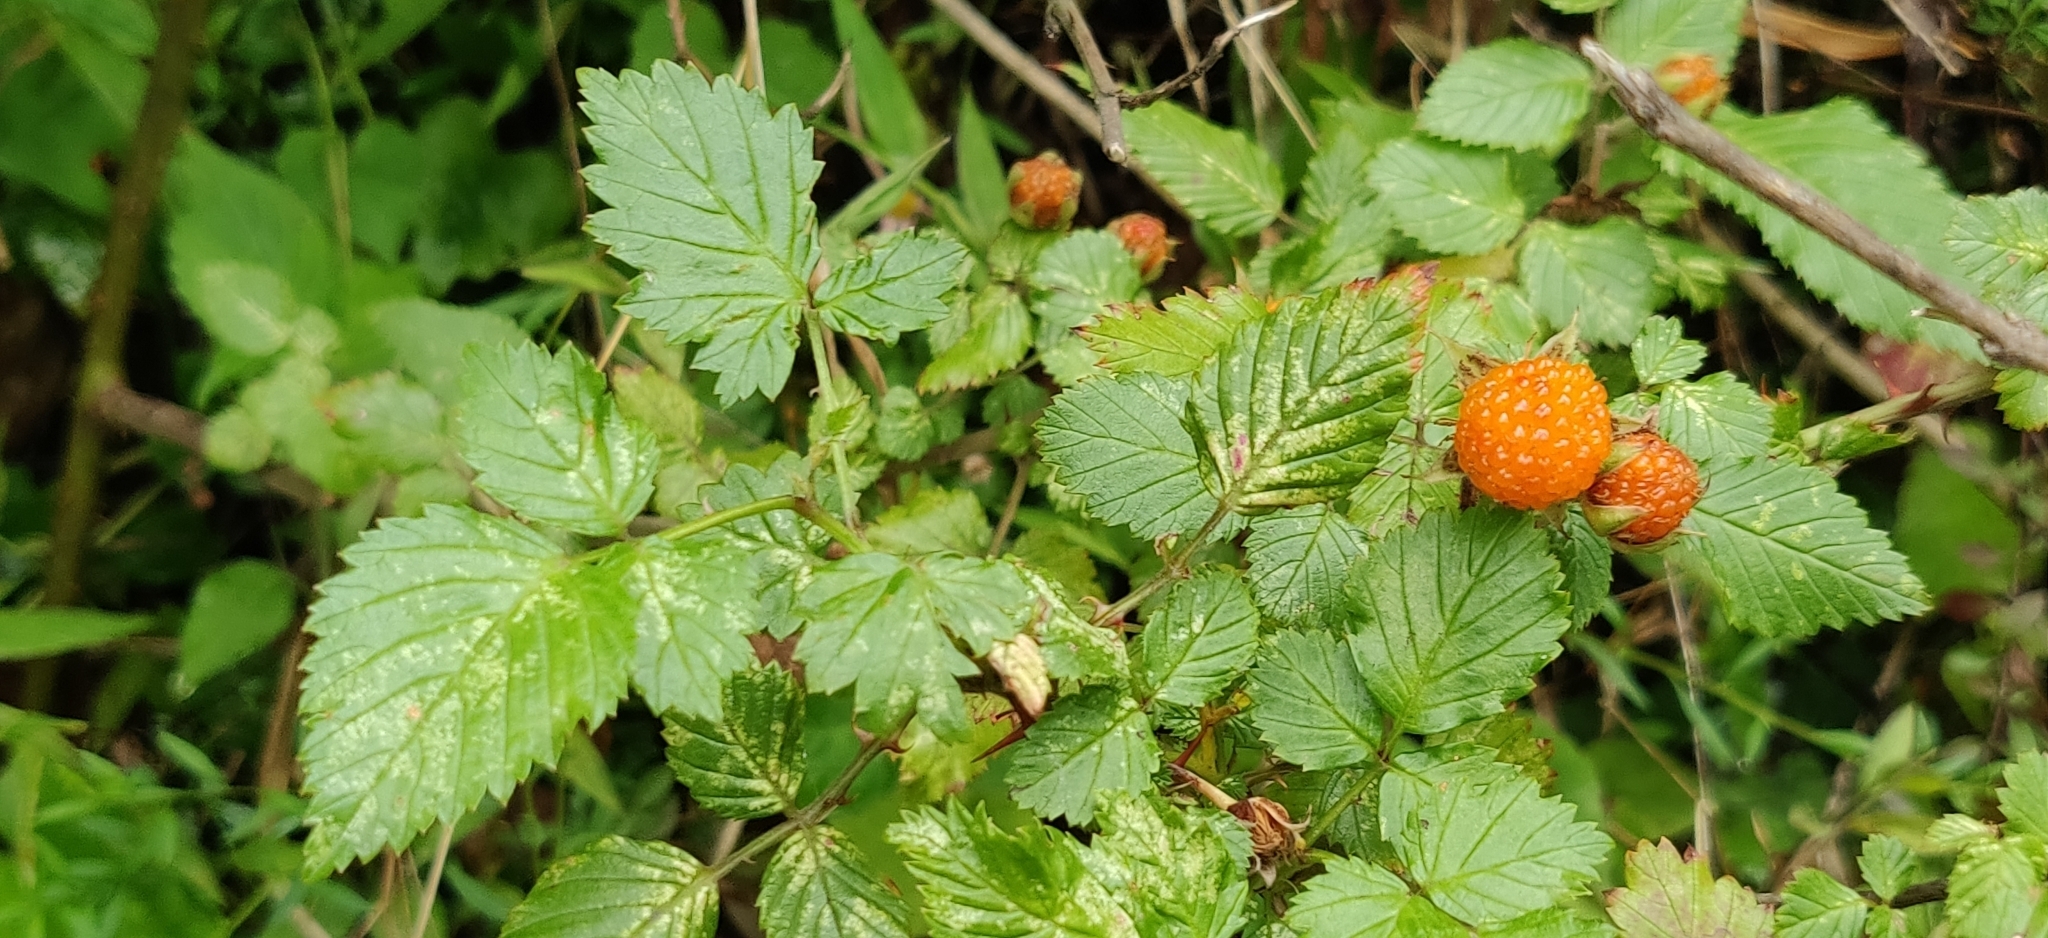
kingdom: Plantae
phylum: Tracheophyta
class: Magnoliopsida
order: Rosales
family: Rosaceae
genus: Rubus
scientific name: Rubus macilentus
